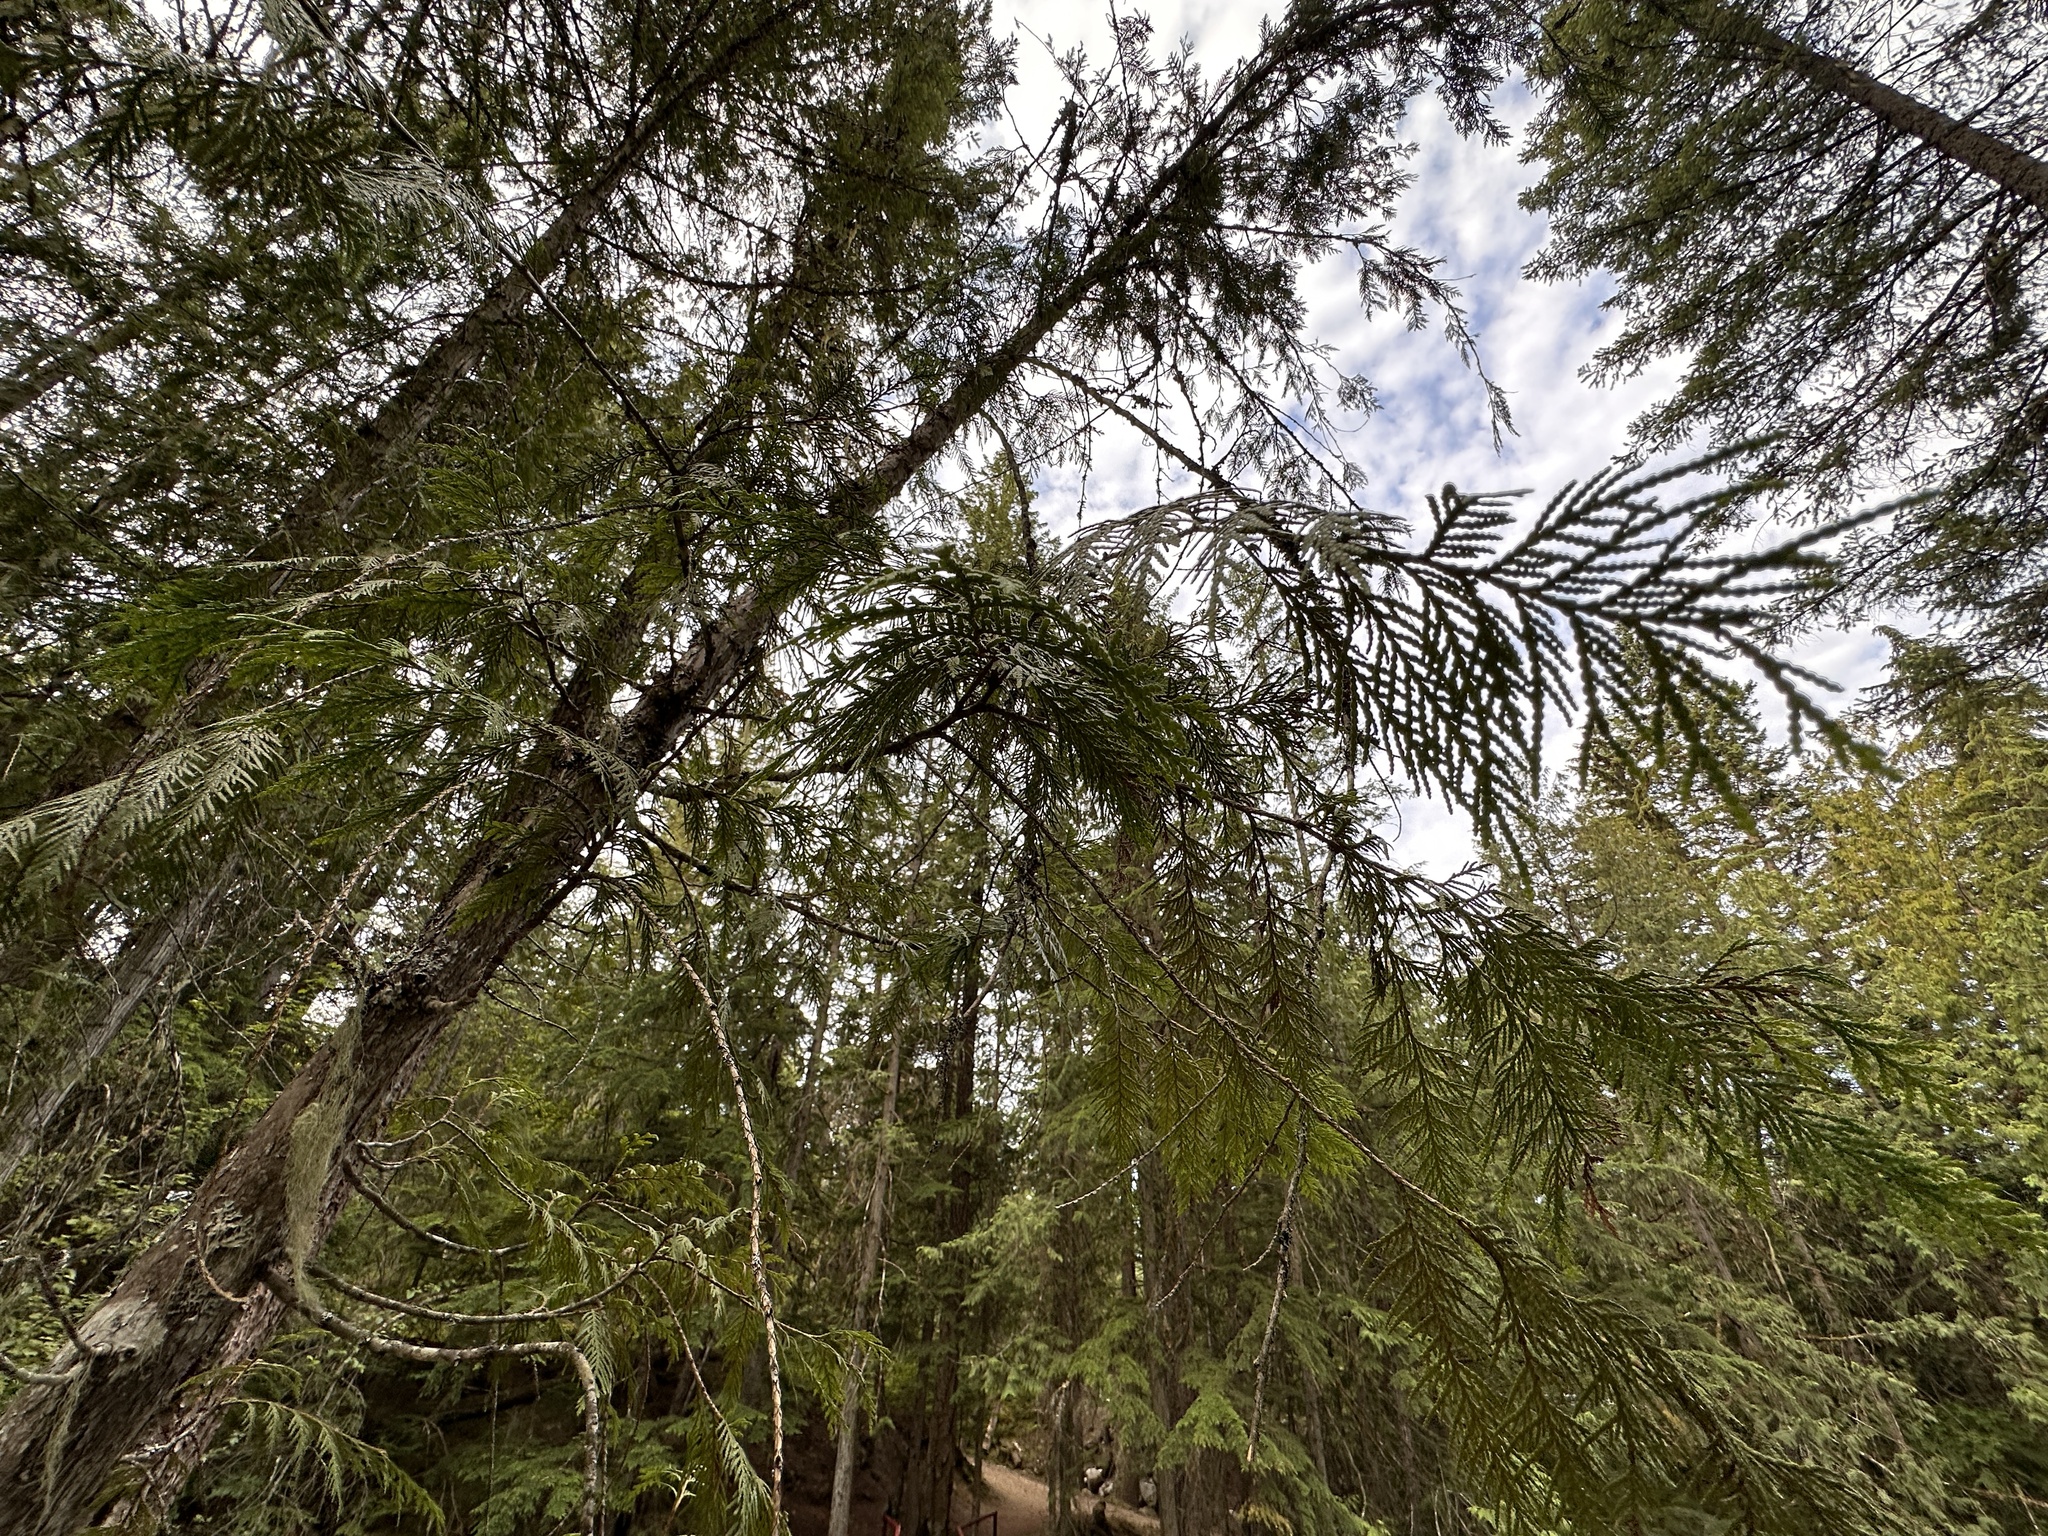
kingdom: Plantae
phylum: Tracheophyta
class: Pinopsida
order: Pinales
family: Cupressaceae
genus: Thuja
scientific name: Thuja plicata
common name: Western red-cedar
